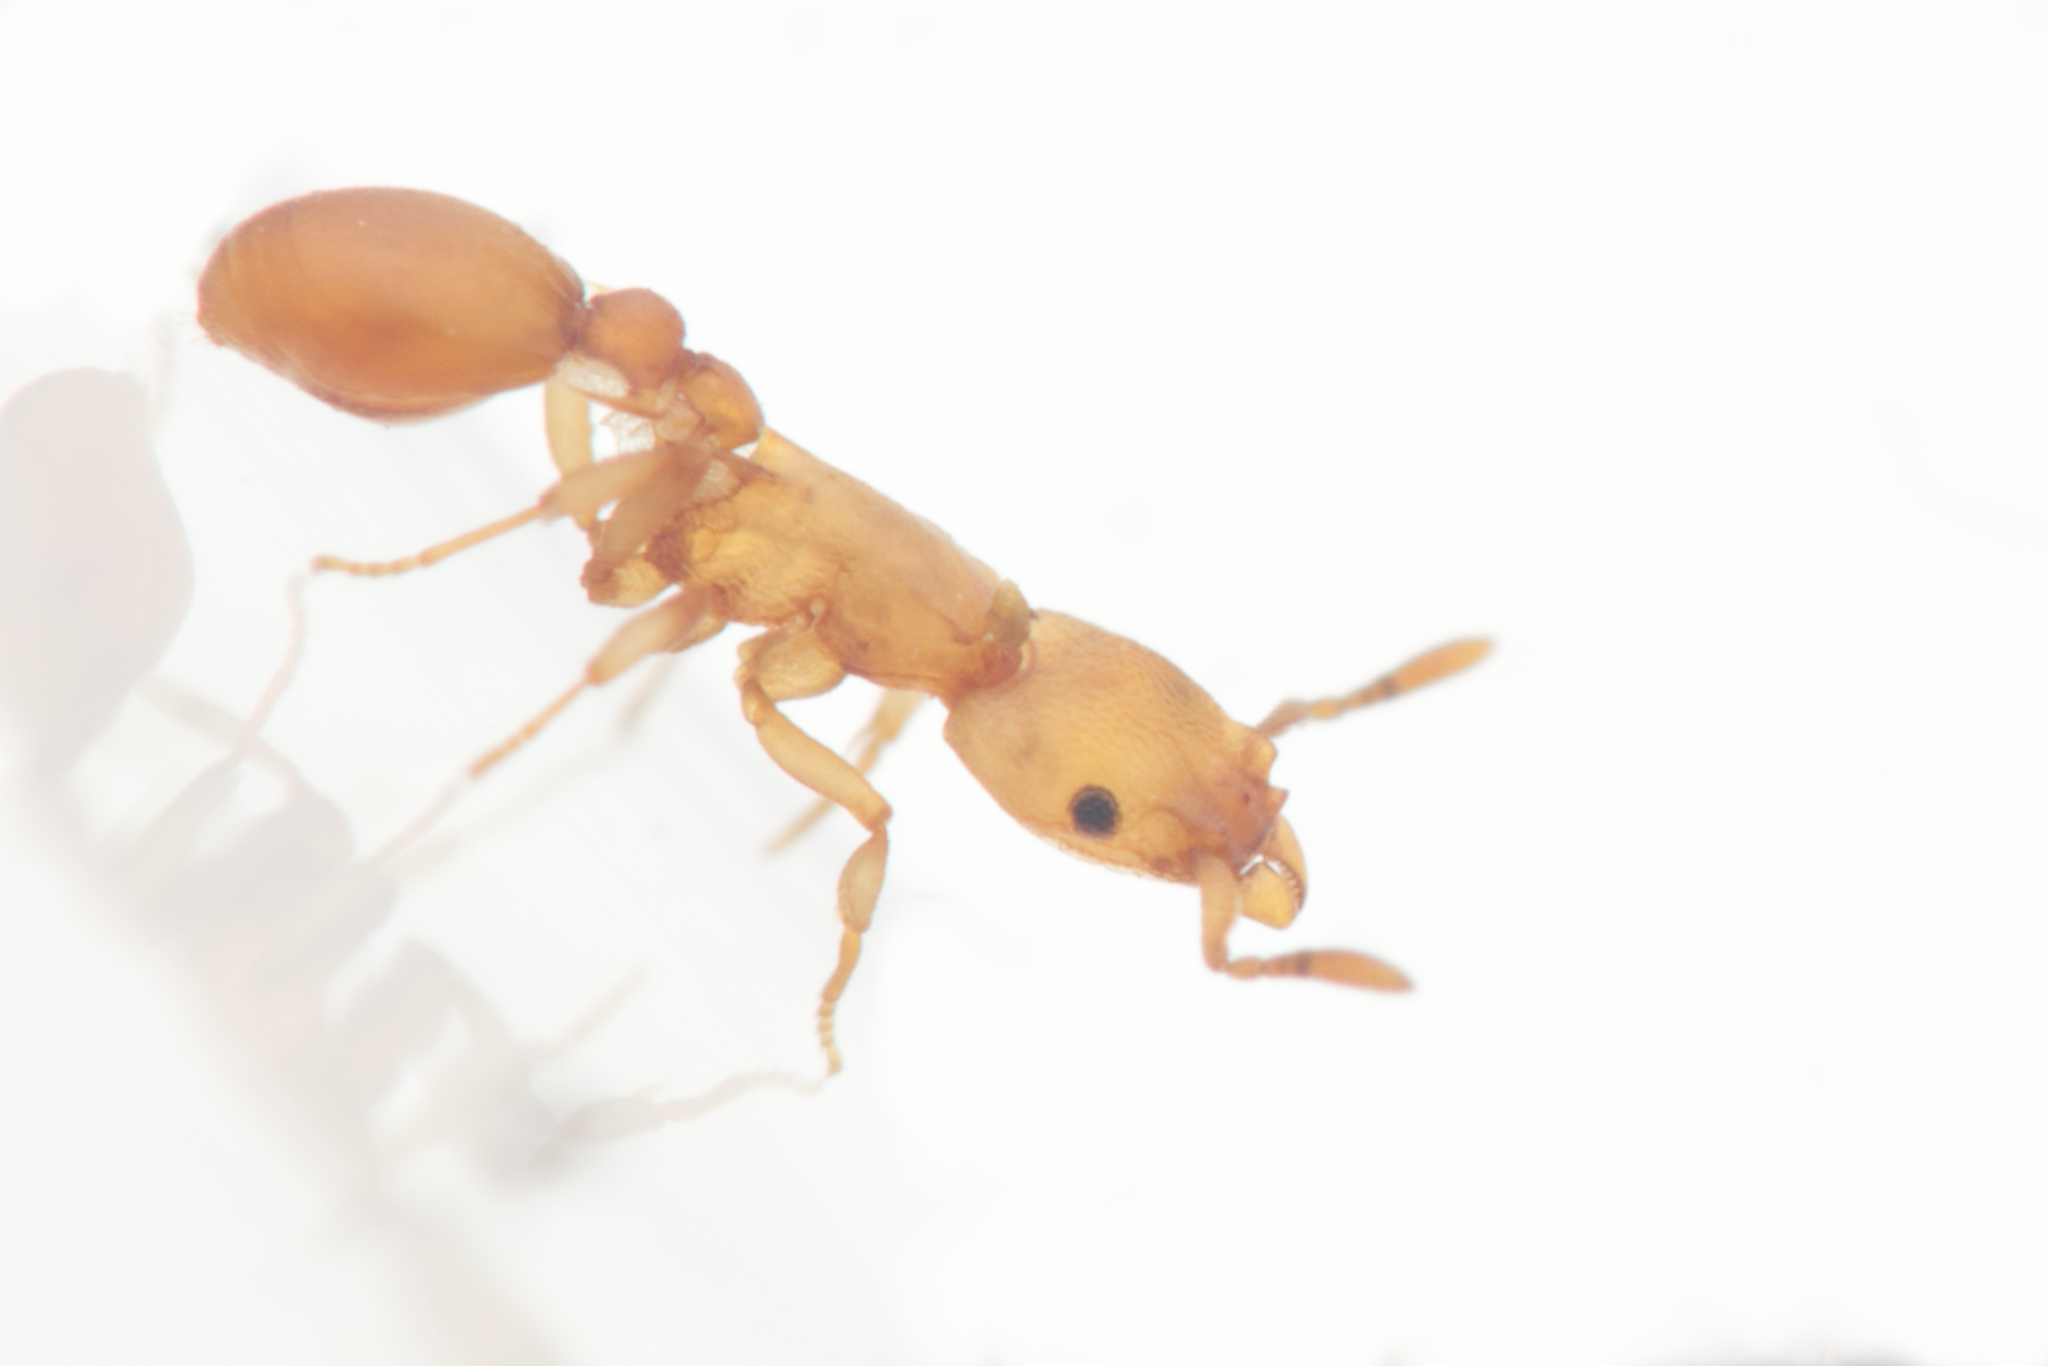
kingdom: Animalia
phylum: Arthropoda
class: Insecta
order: Hymenoptera
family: Formicidae
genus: Colobostruma
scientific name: Colobostruma
